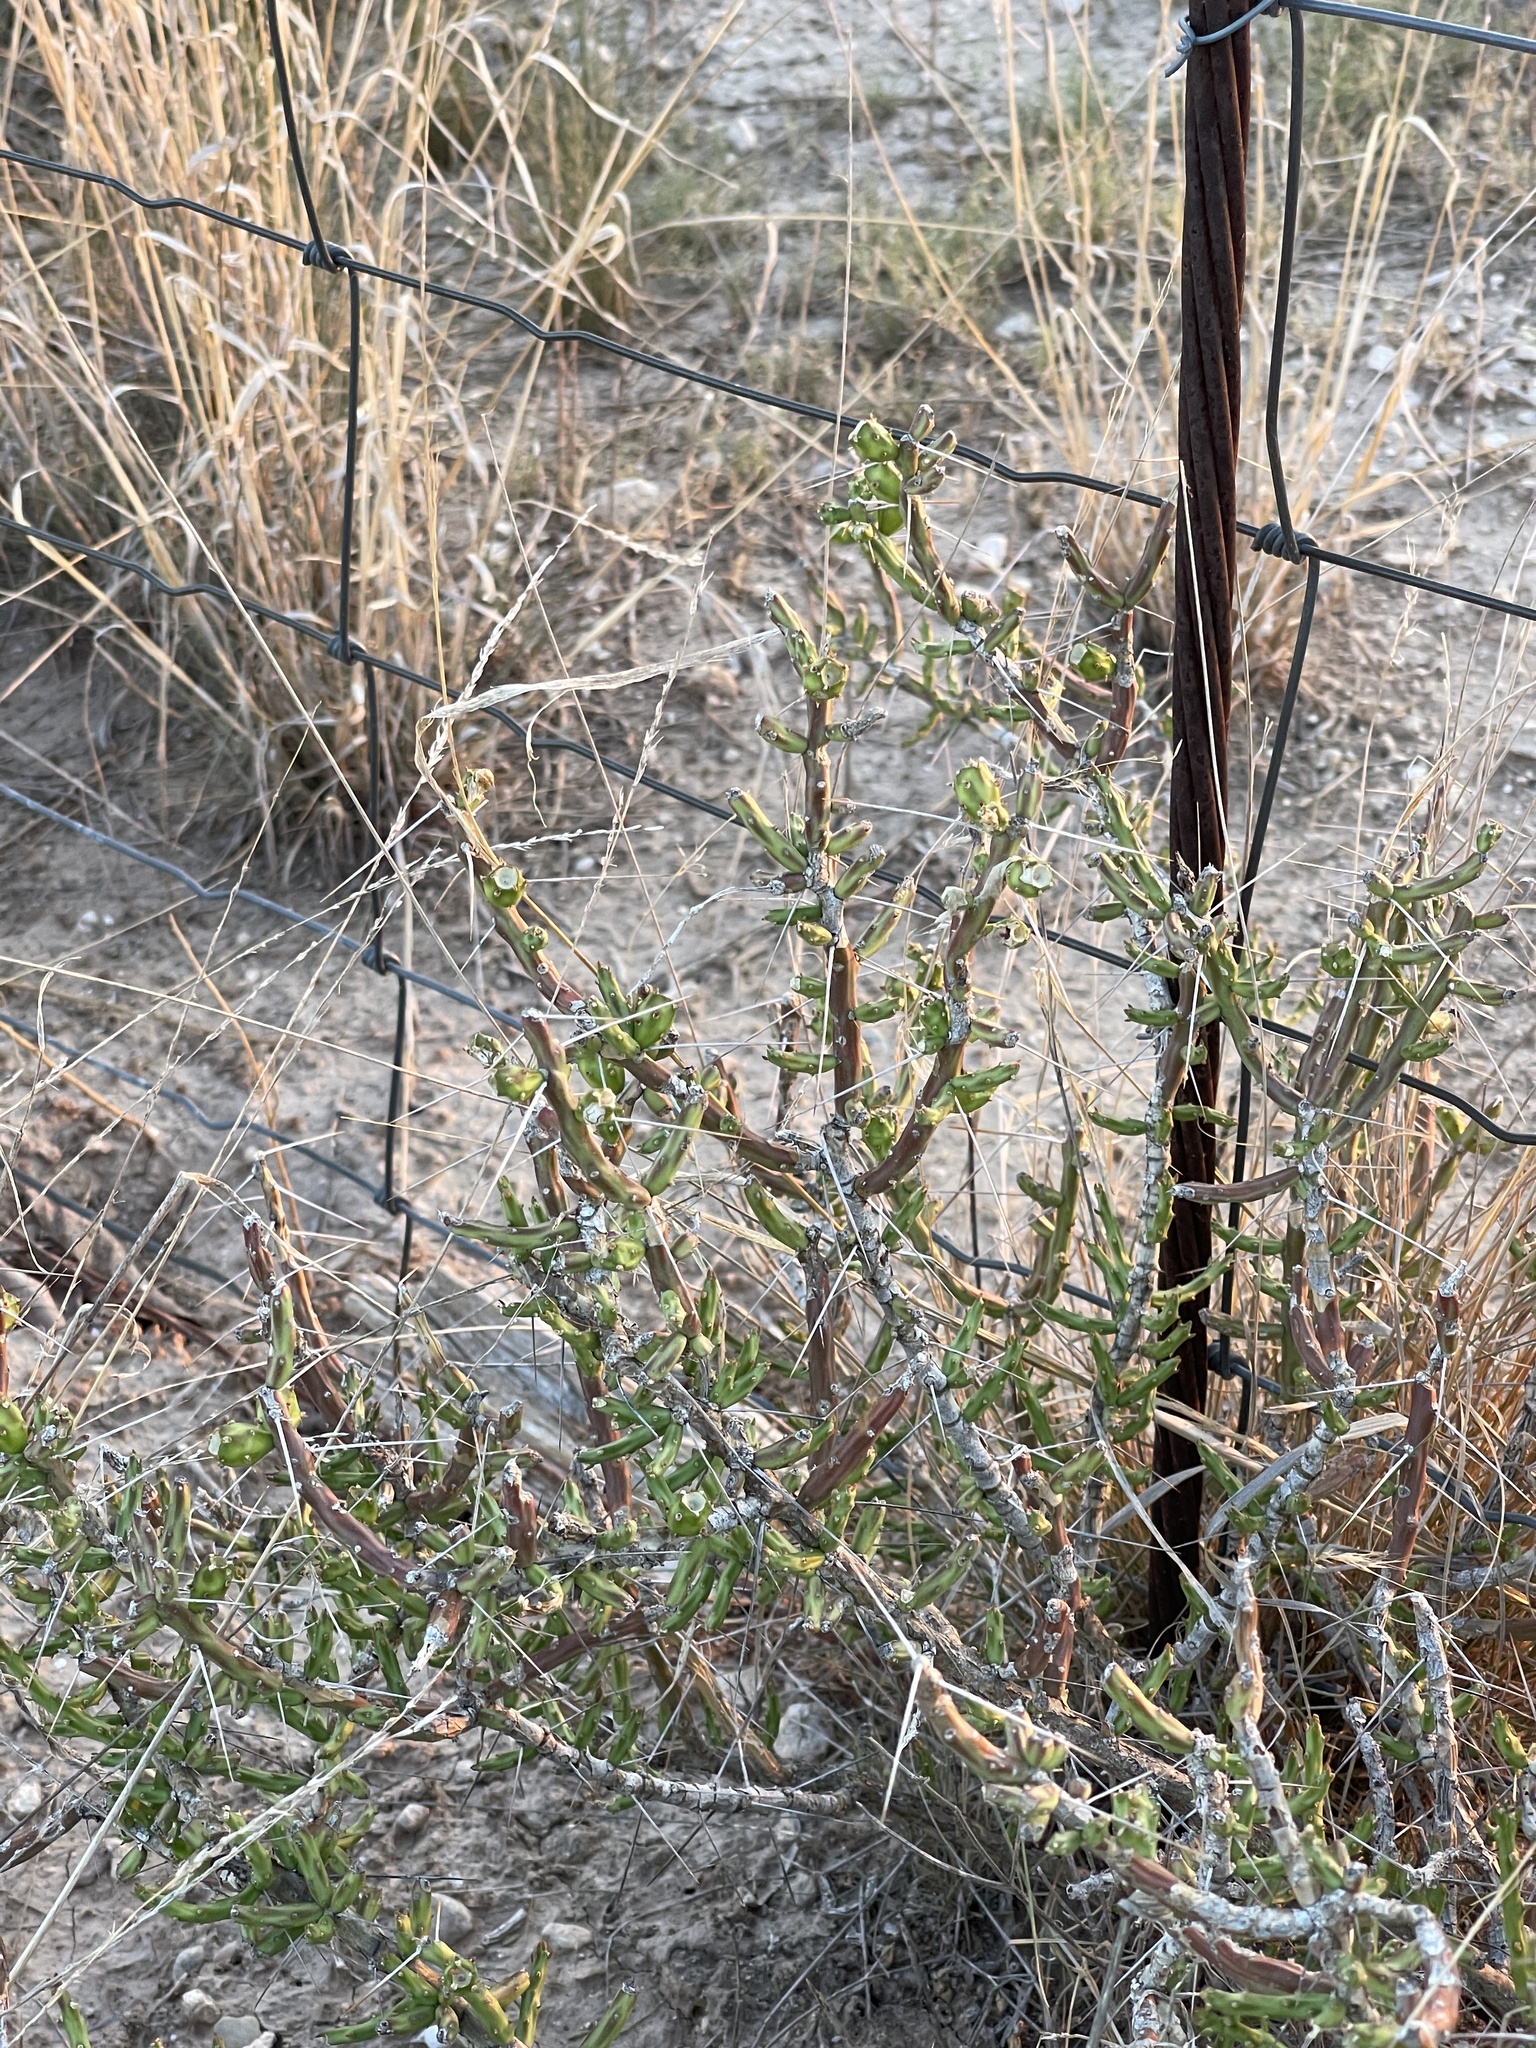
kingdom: Plantae
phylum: Tracheophyta
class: Magnoliopsida
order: Caryophyllales
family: Cactaceae
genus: Cylindropuntia
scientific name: Cylindropuntia leptocaulis
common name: Christmas cactus
